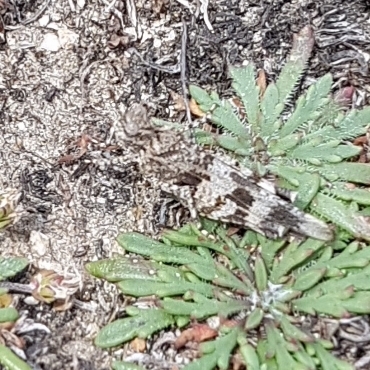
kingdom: Animalia
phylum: Arthropoda
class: Insecta
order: Orthoptera
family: Acrididae
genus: Oedipoda
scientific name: Oedipoda caerulescens
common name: Blue-winged grasshopper
